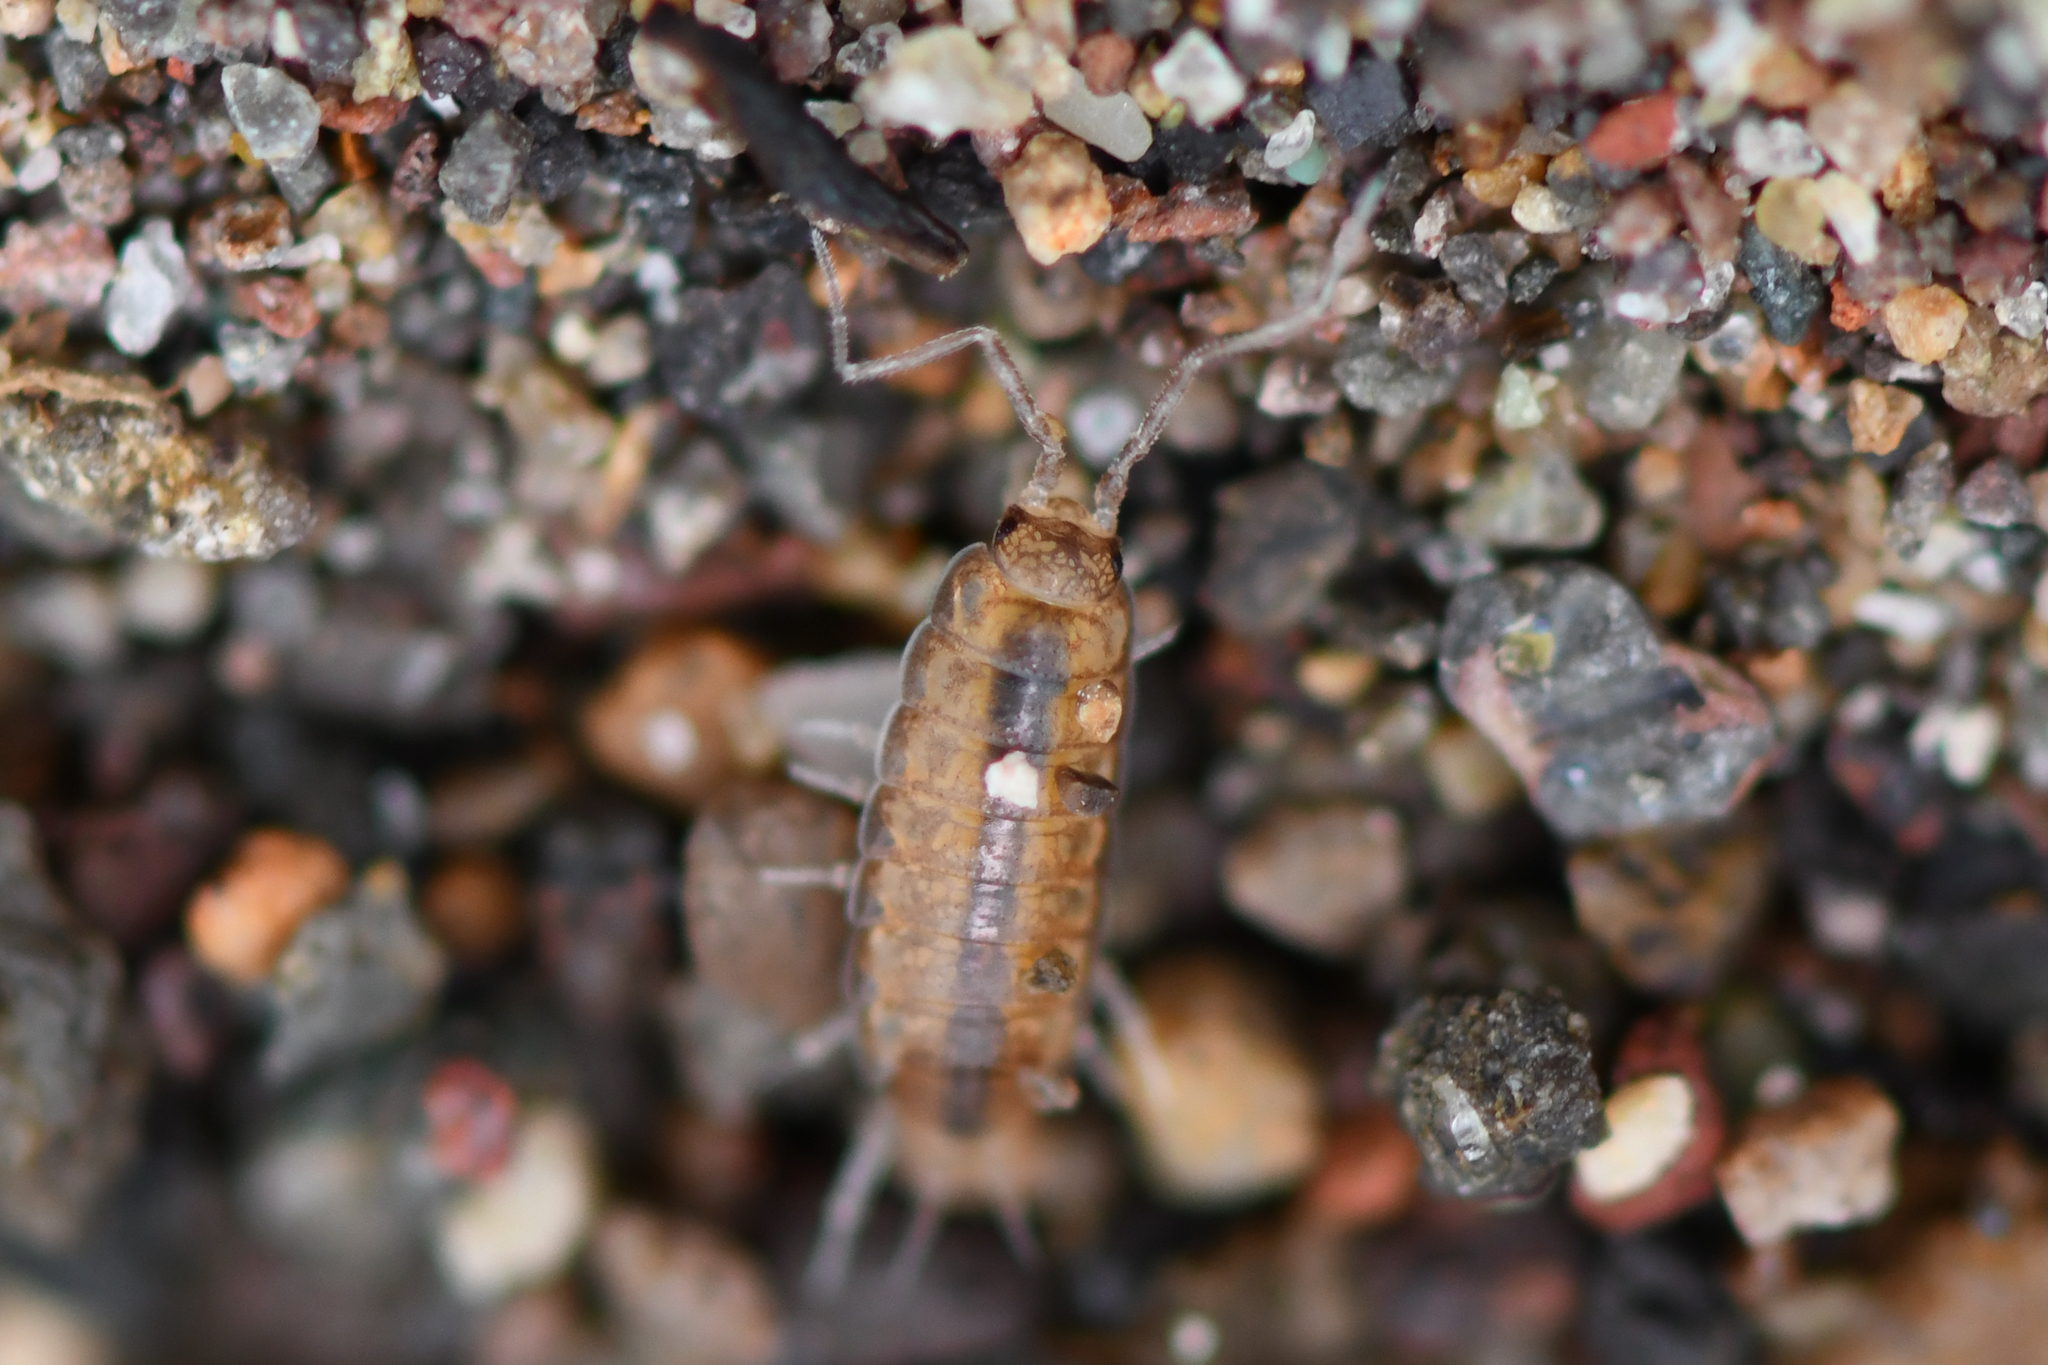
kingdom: Animalia
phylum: Arthropoda
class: Malacostraca
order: Isopoda
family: Halophilosciidae
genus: Littorophiloscia
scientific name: Littorophiloscia richardsonae
